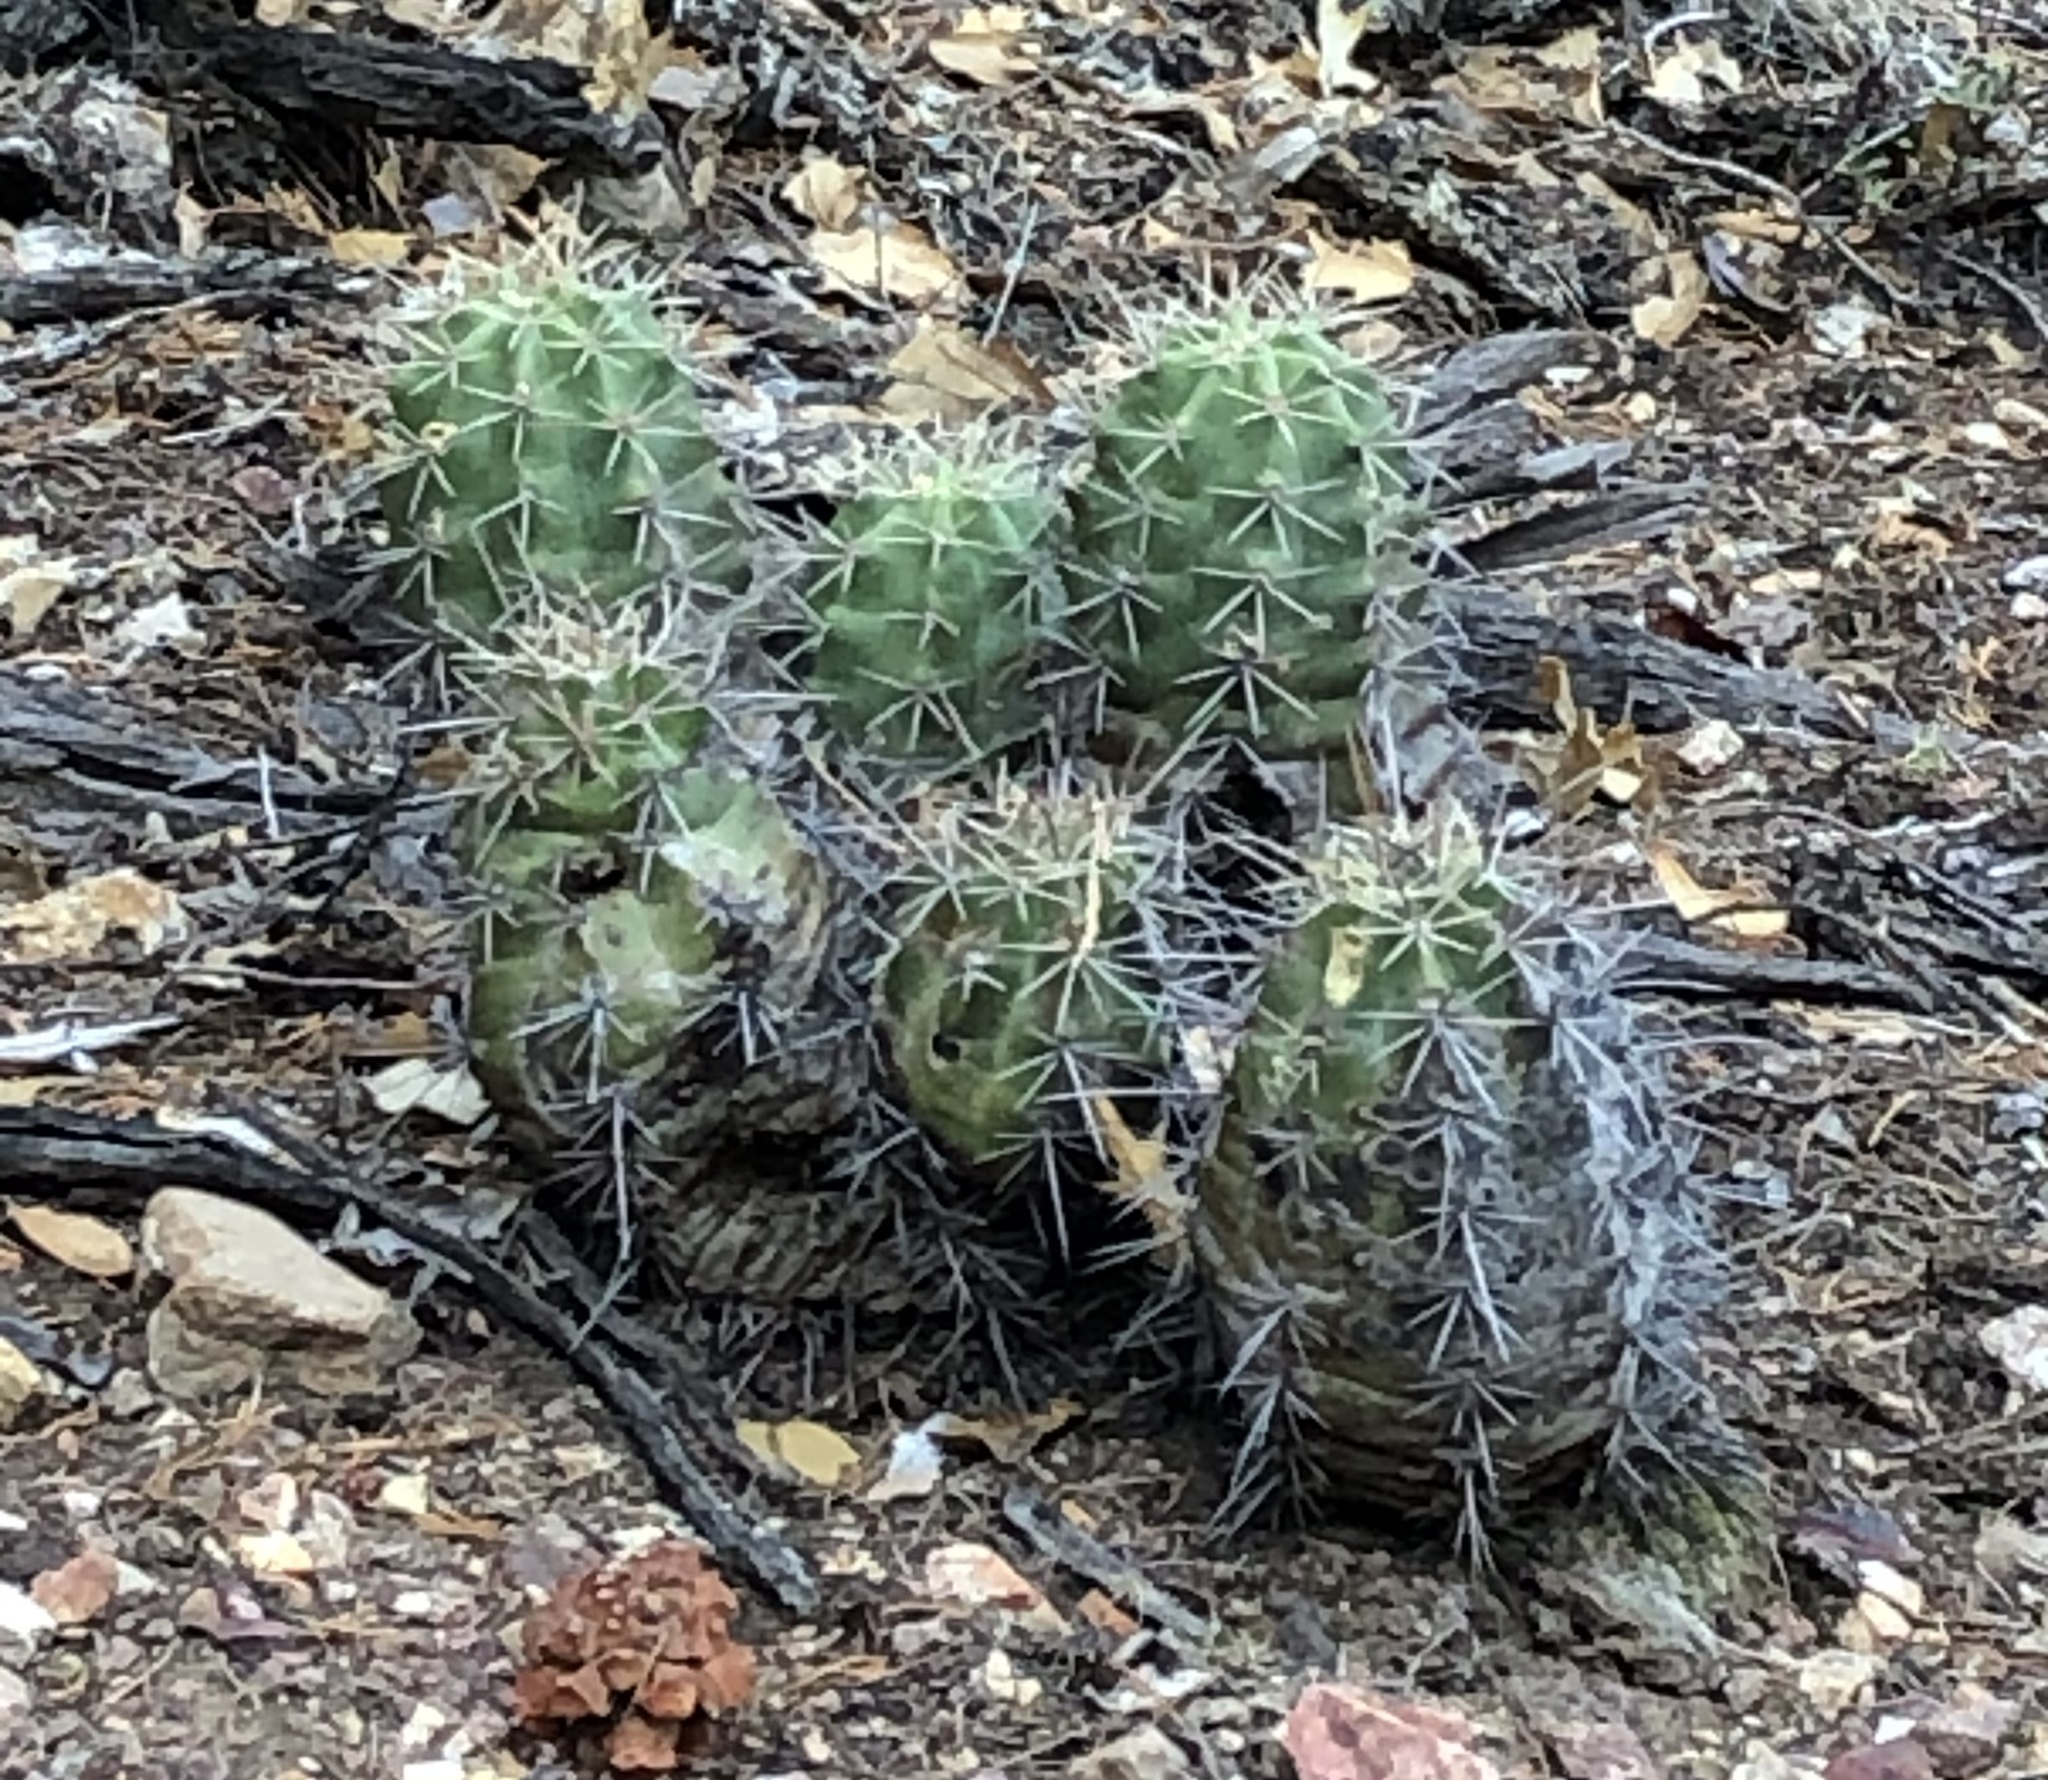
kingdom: Plantae
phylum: Tracheophyta
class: Magnoliopsida
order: Caryophyllales
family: Cactaceae
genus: Echinocereus
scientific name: Echinocereus coccineus
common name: Scarlet hedgehog cactus
